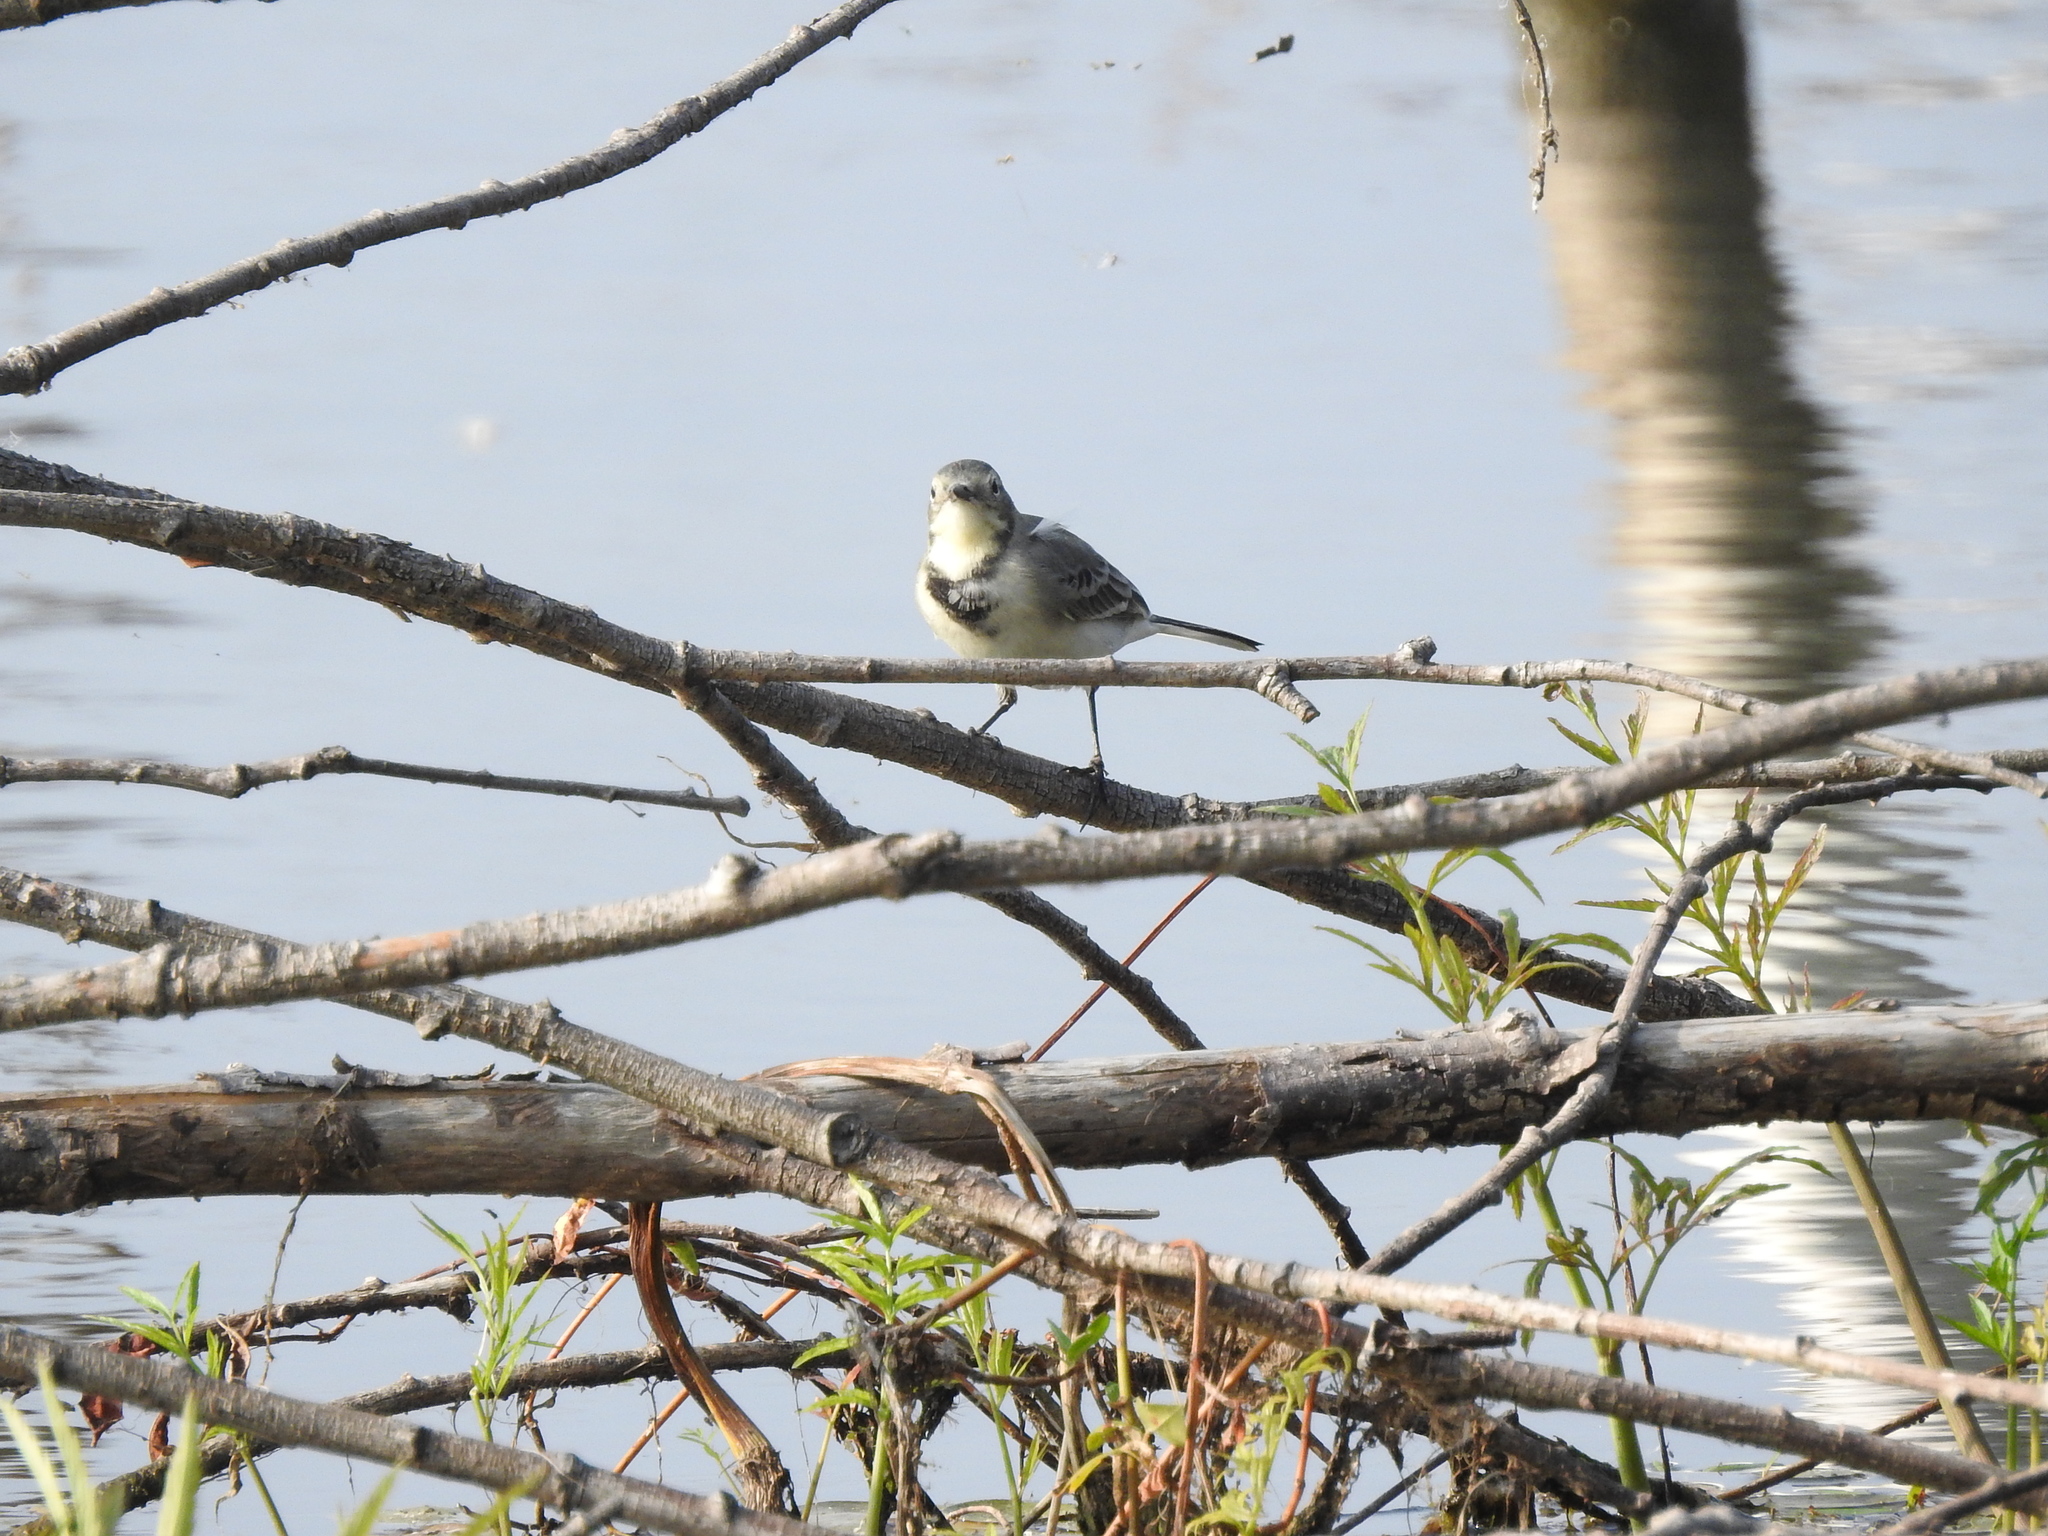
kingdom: Animalia
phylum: Chordata
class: Aves
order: Passeriformes
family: Motacillidae
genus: Motacilla
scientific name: Motacilla alba
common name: White wagtail
